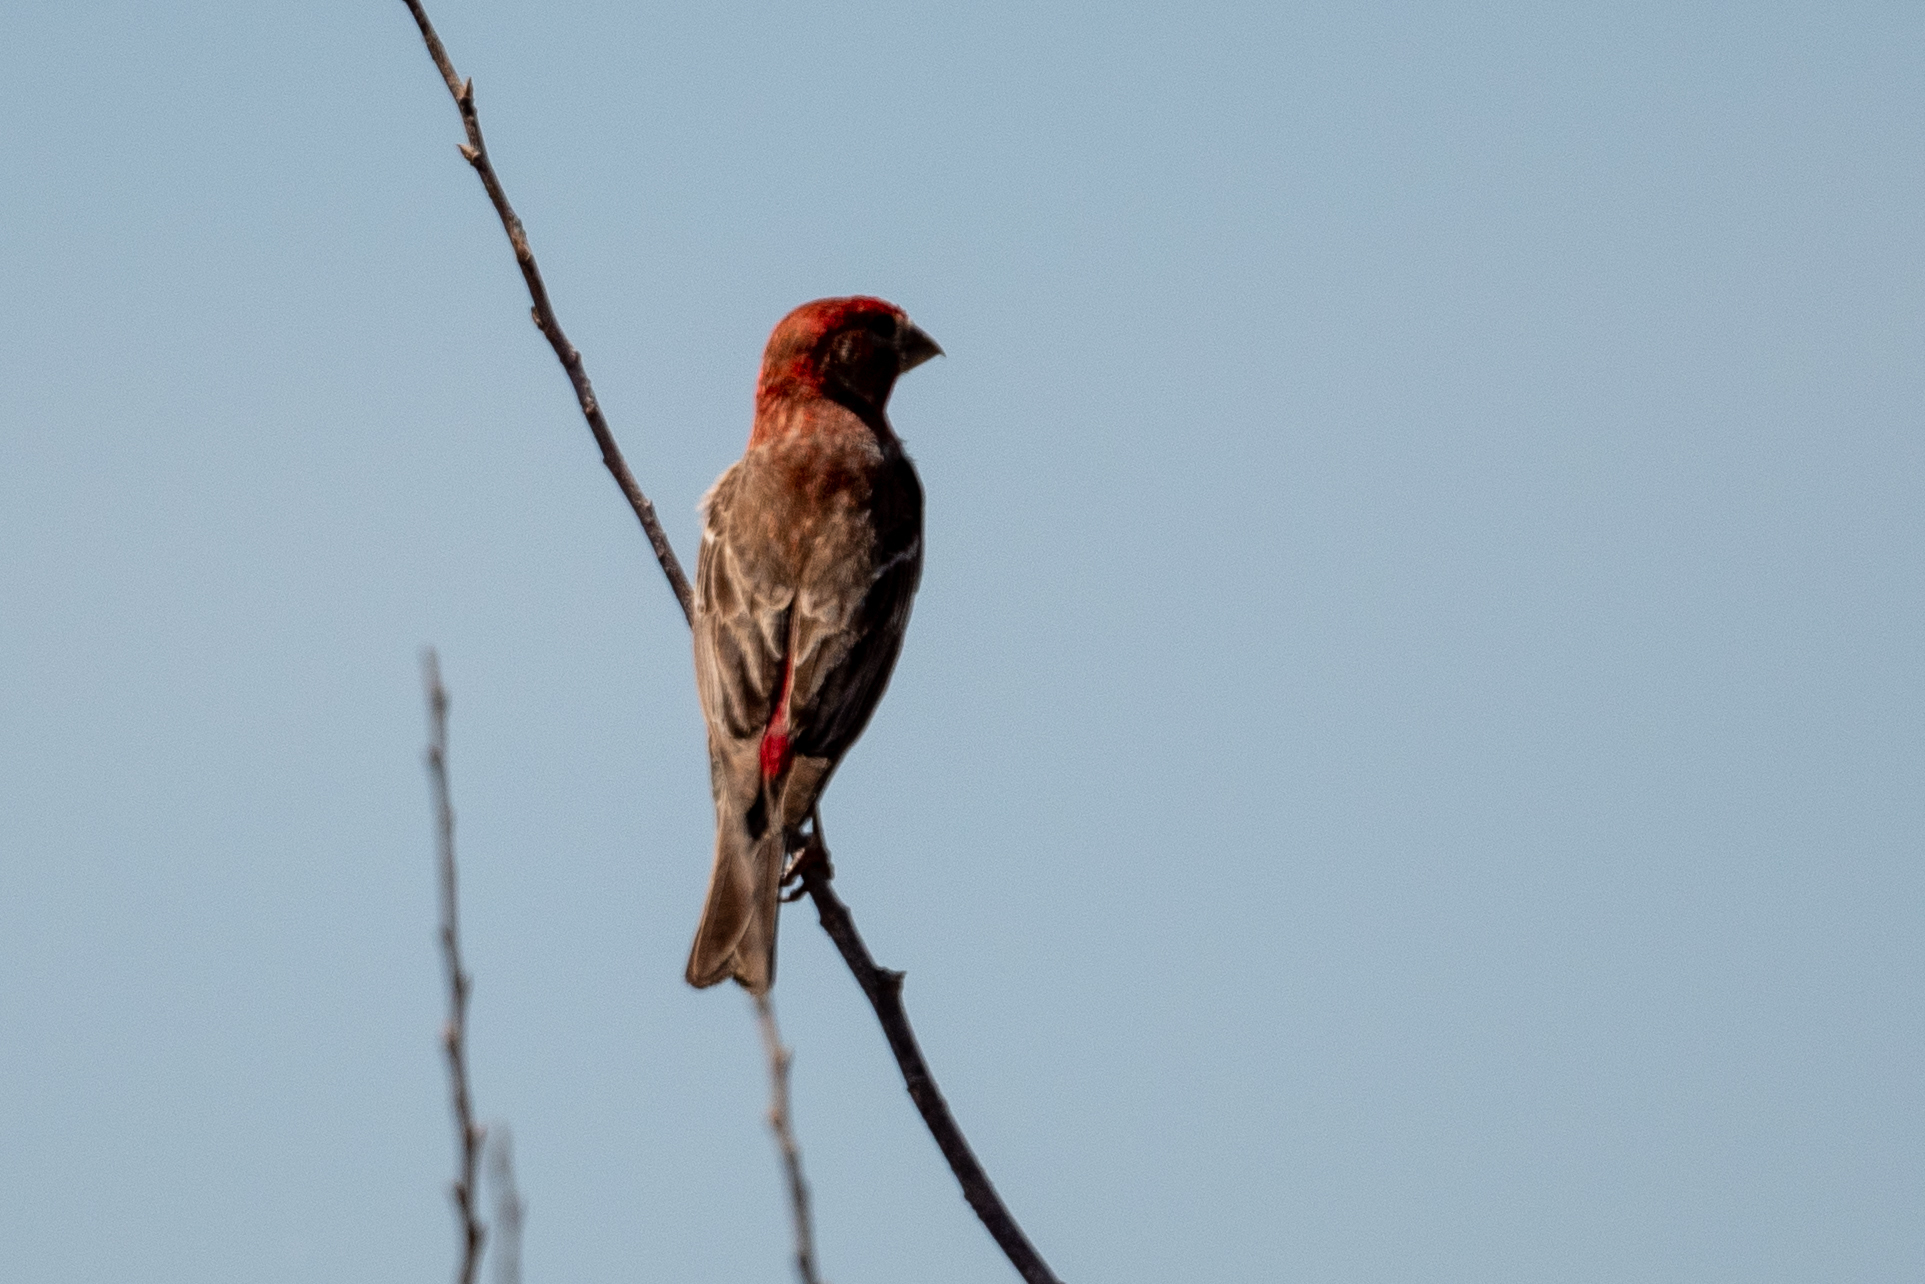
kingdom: Animalia
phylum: Chordata
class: Aves
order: Passeriformes
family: Fringillidae
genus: Haemorhous
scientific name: Haemorhous mexicanus
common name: House finch
